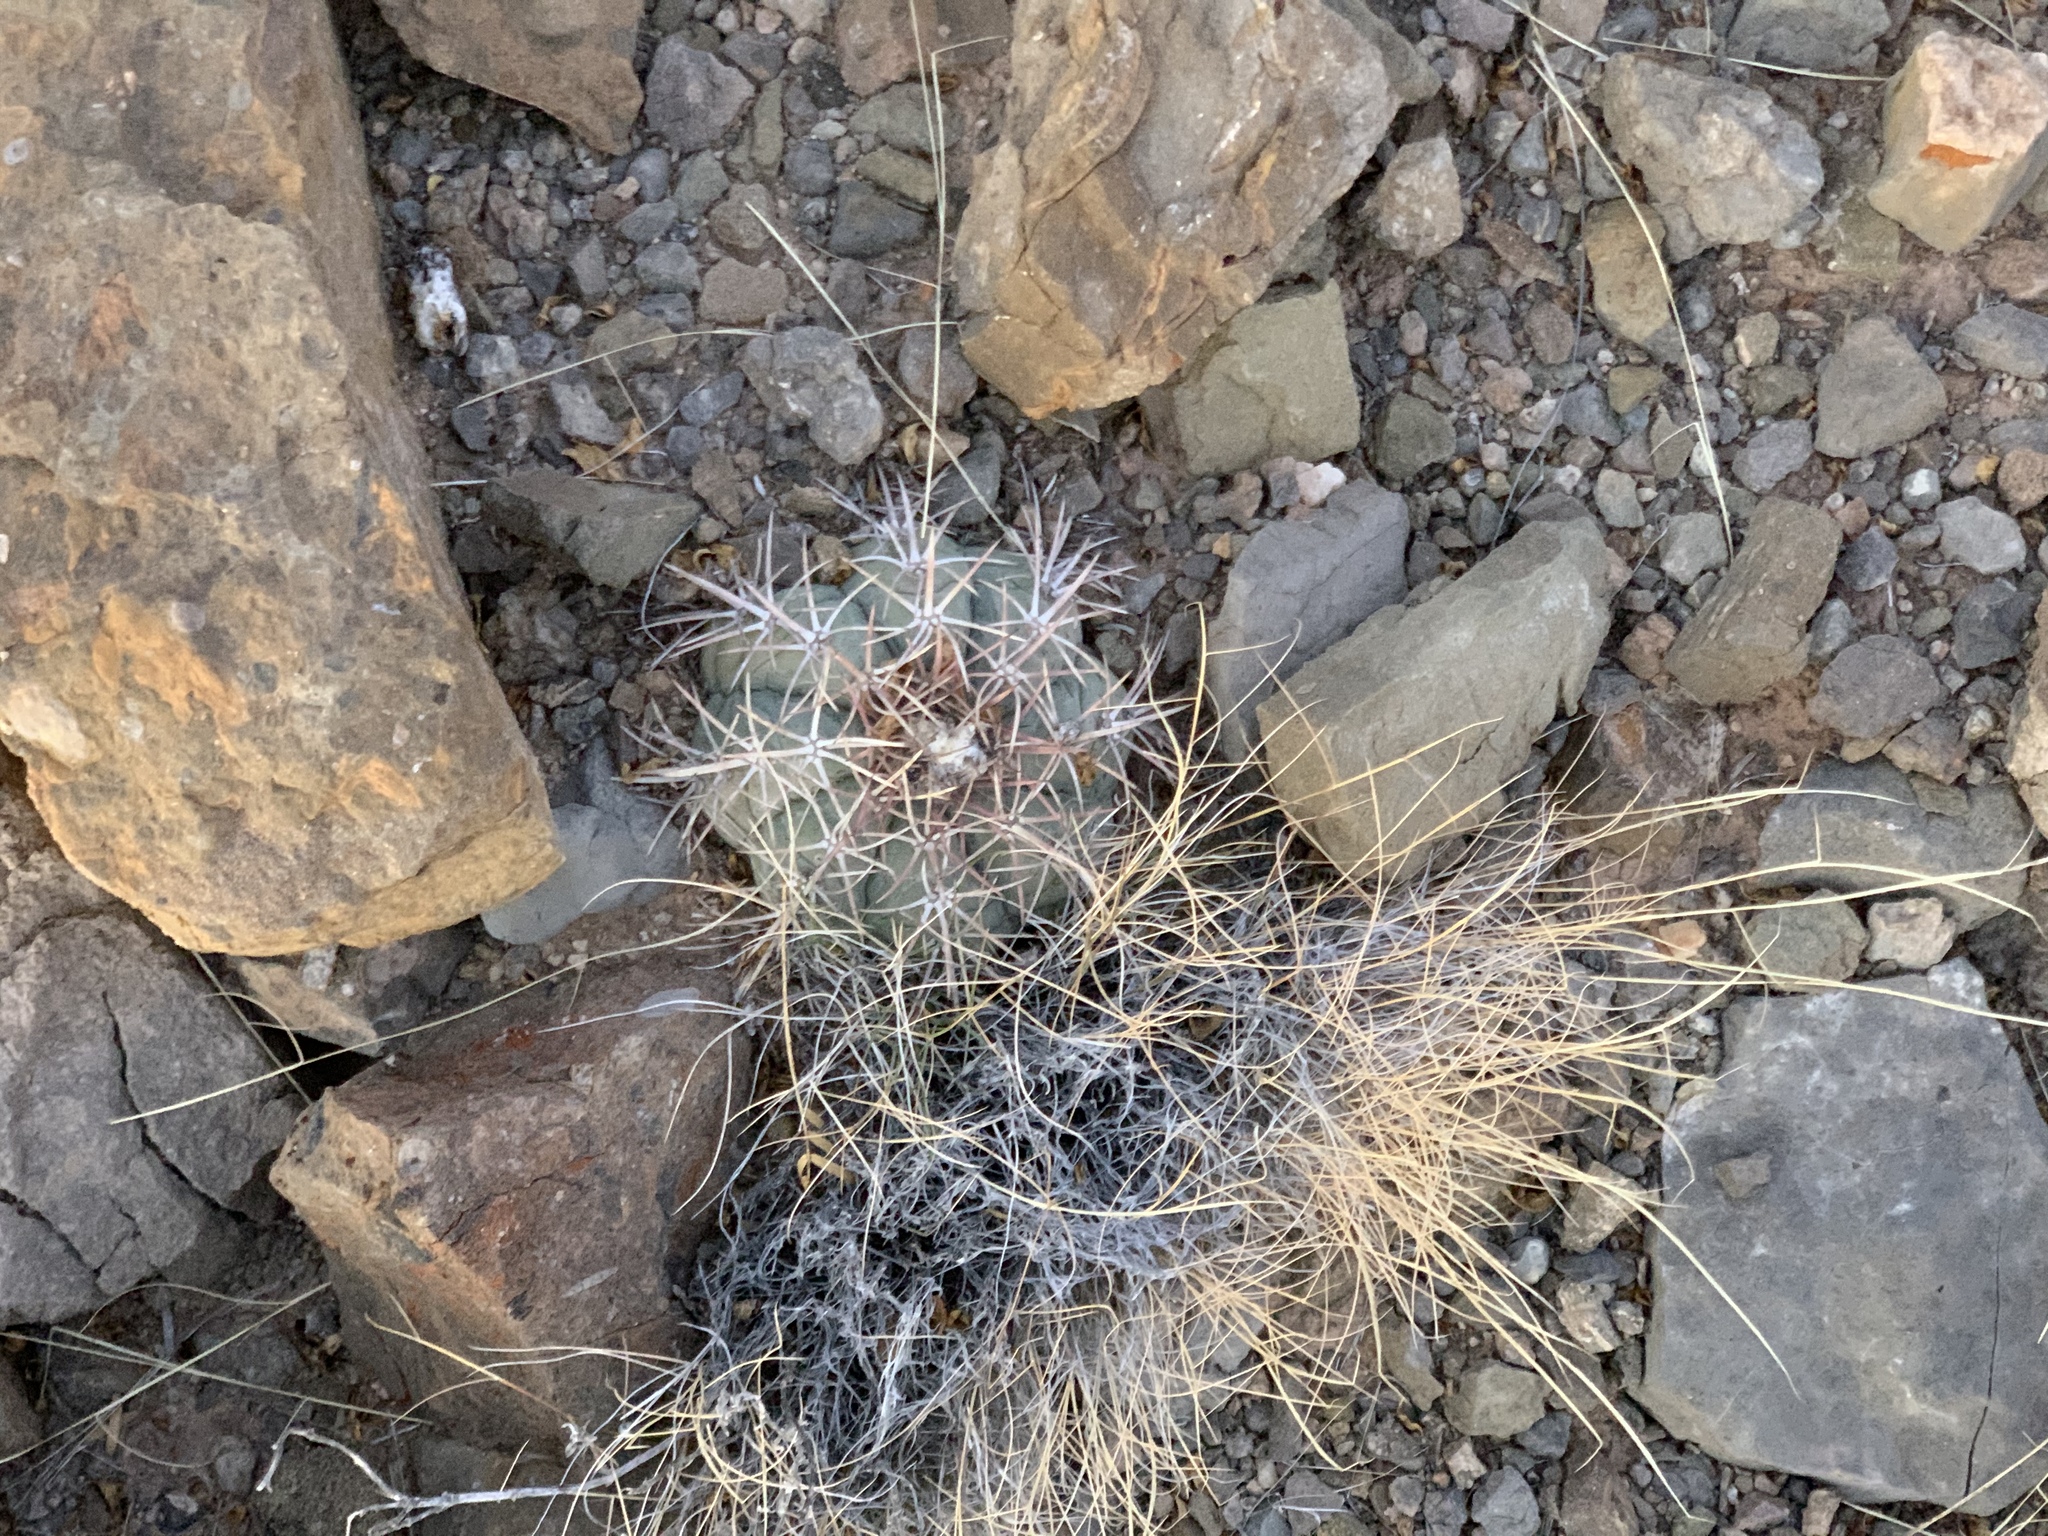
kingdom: Plantae
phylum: Tracheophyta
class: Magnoliopsida
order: Caryophyllales
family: Cactaceae
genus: Echinocactus
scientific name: Echinocactus horizonthalonius
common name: Devilshead
